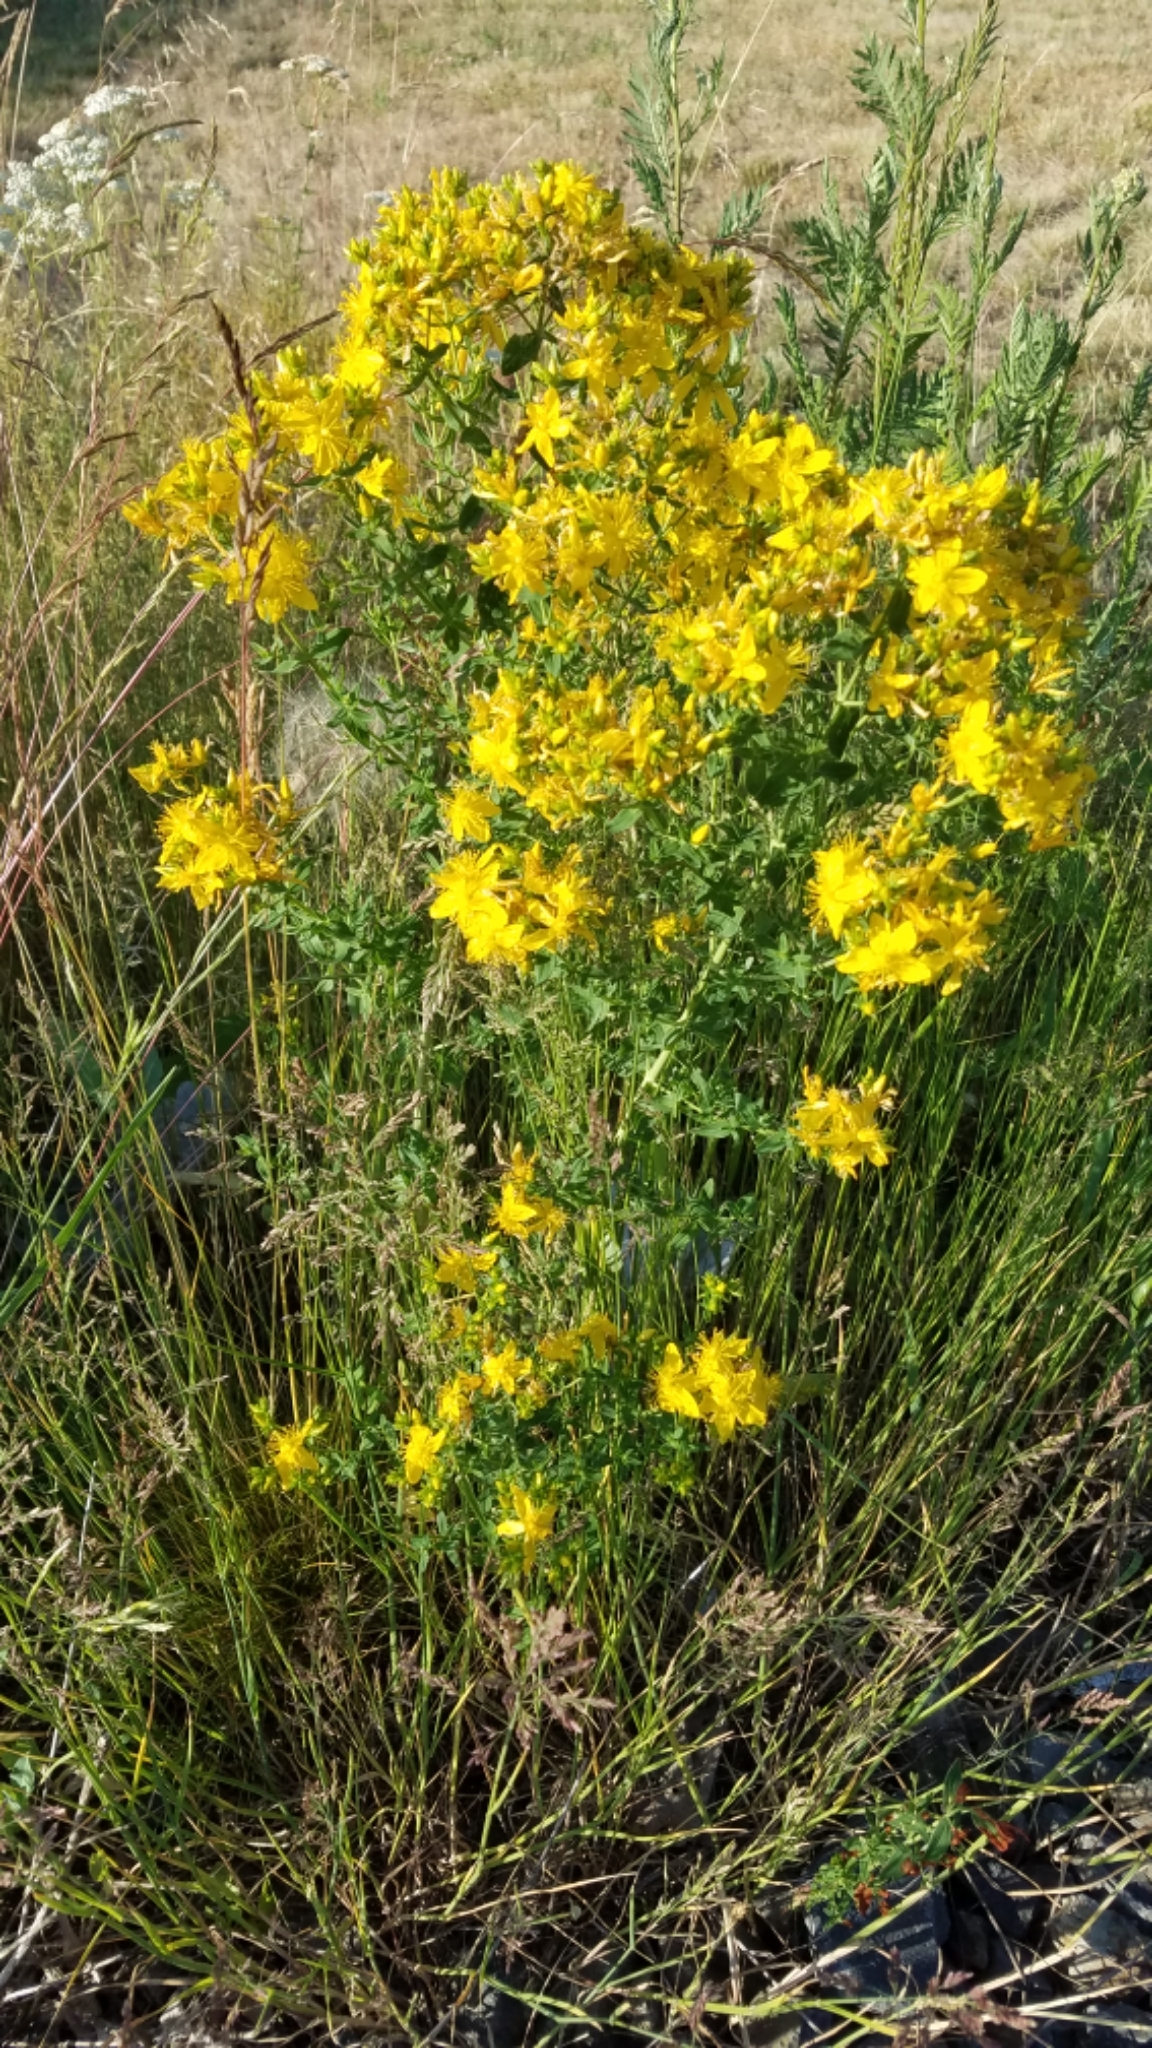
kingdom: Plantae
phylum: Tracheophyta
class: Magnoliopsida
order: Malpighiales
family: Hypericaceae
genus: Hypericum
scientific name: Hypericum perforatum
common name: Common st. johnswort
